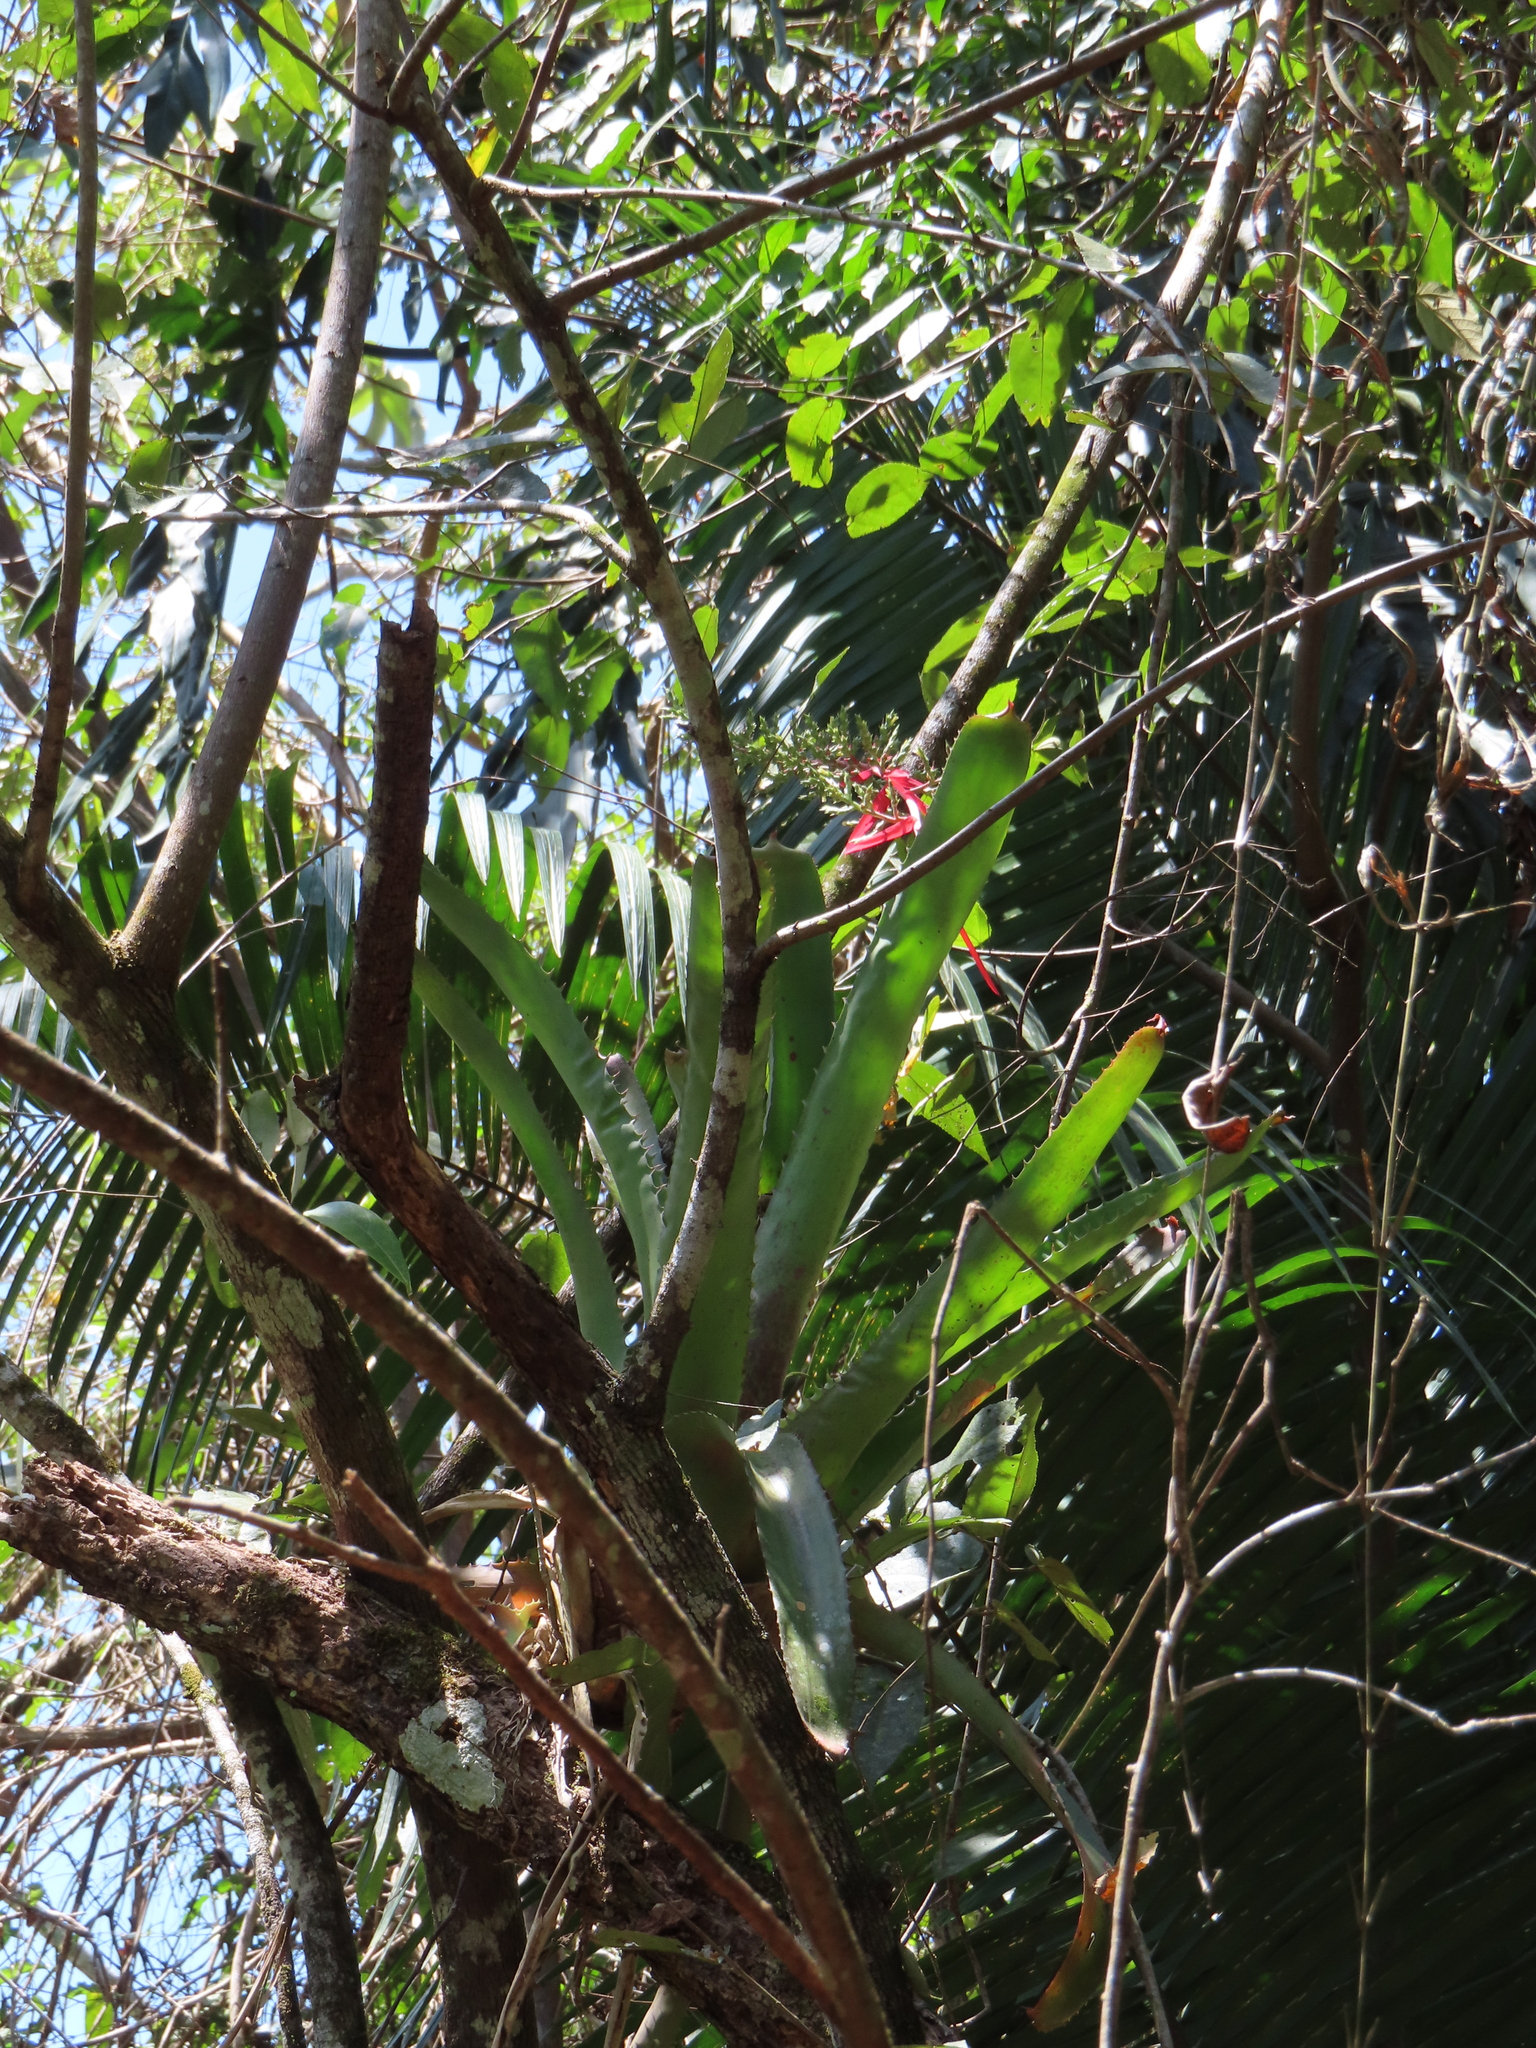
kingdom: Plantae
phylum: Tracheophyta
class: Liliopsida
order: Poales
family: Bromeliaceae
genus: Aechmea
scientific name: Aechmea bracteata
